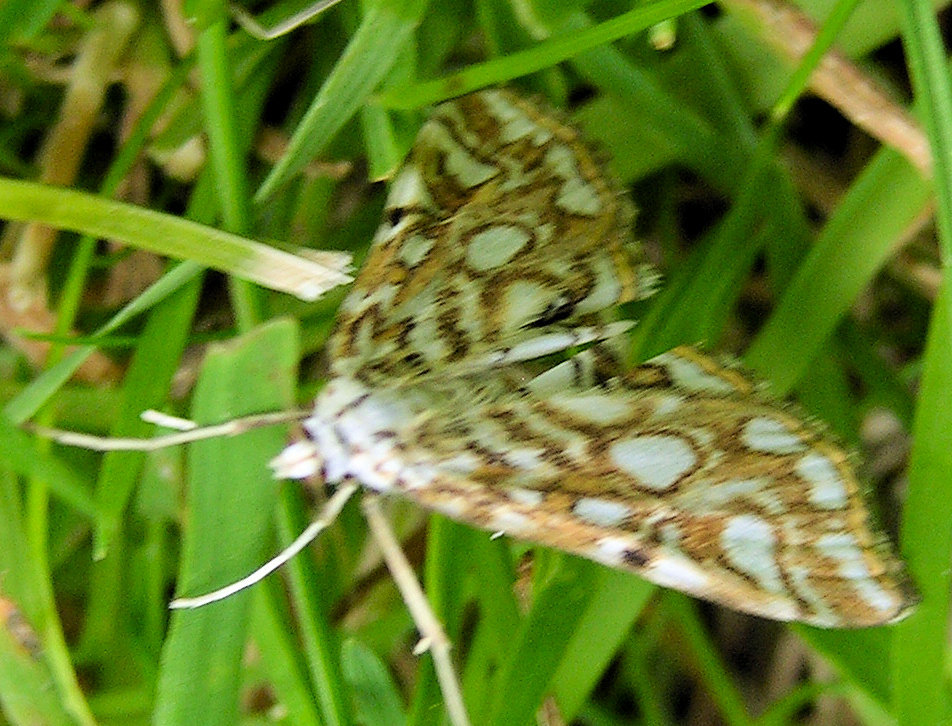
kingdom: Animalia
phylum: Arthropoda
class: Insecta
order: Lepidoptera
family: Crambidae
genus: Elophila
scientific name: Elophila nymphaeata
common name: Brown china-mark
